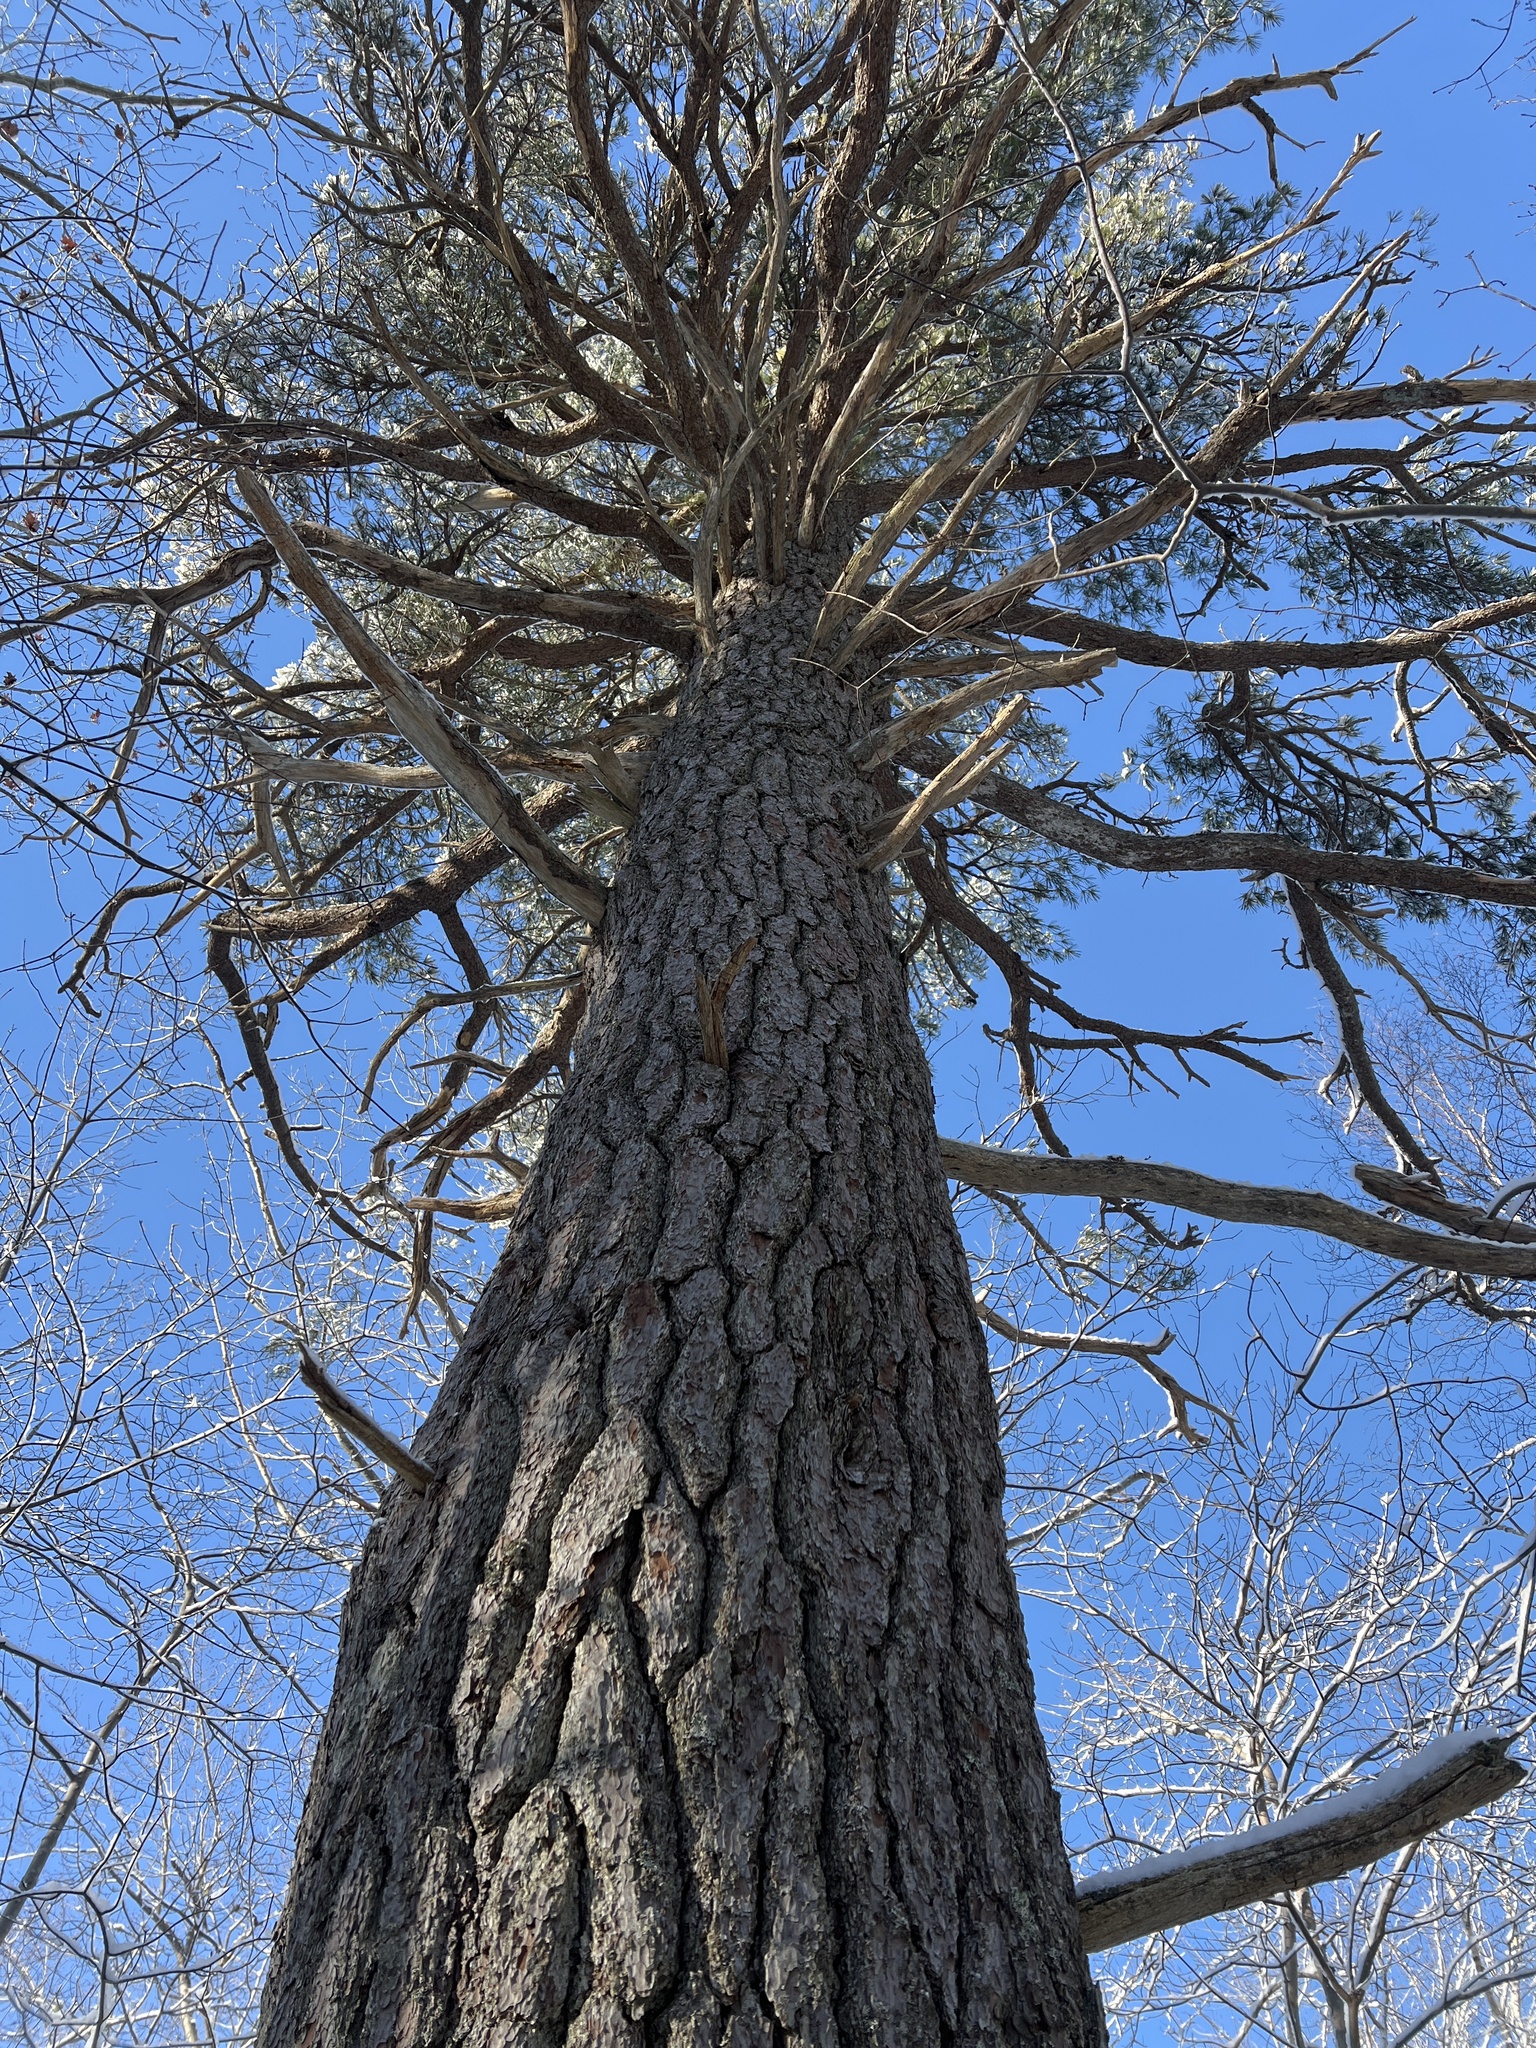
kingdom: Plantae
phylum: Tracheophyta
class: Pinopsida
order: Pinales
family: Pinaceae
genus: Pinus
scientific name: Pinus strobus
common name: Weymouth pine
